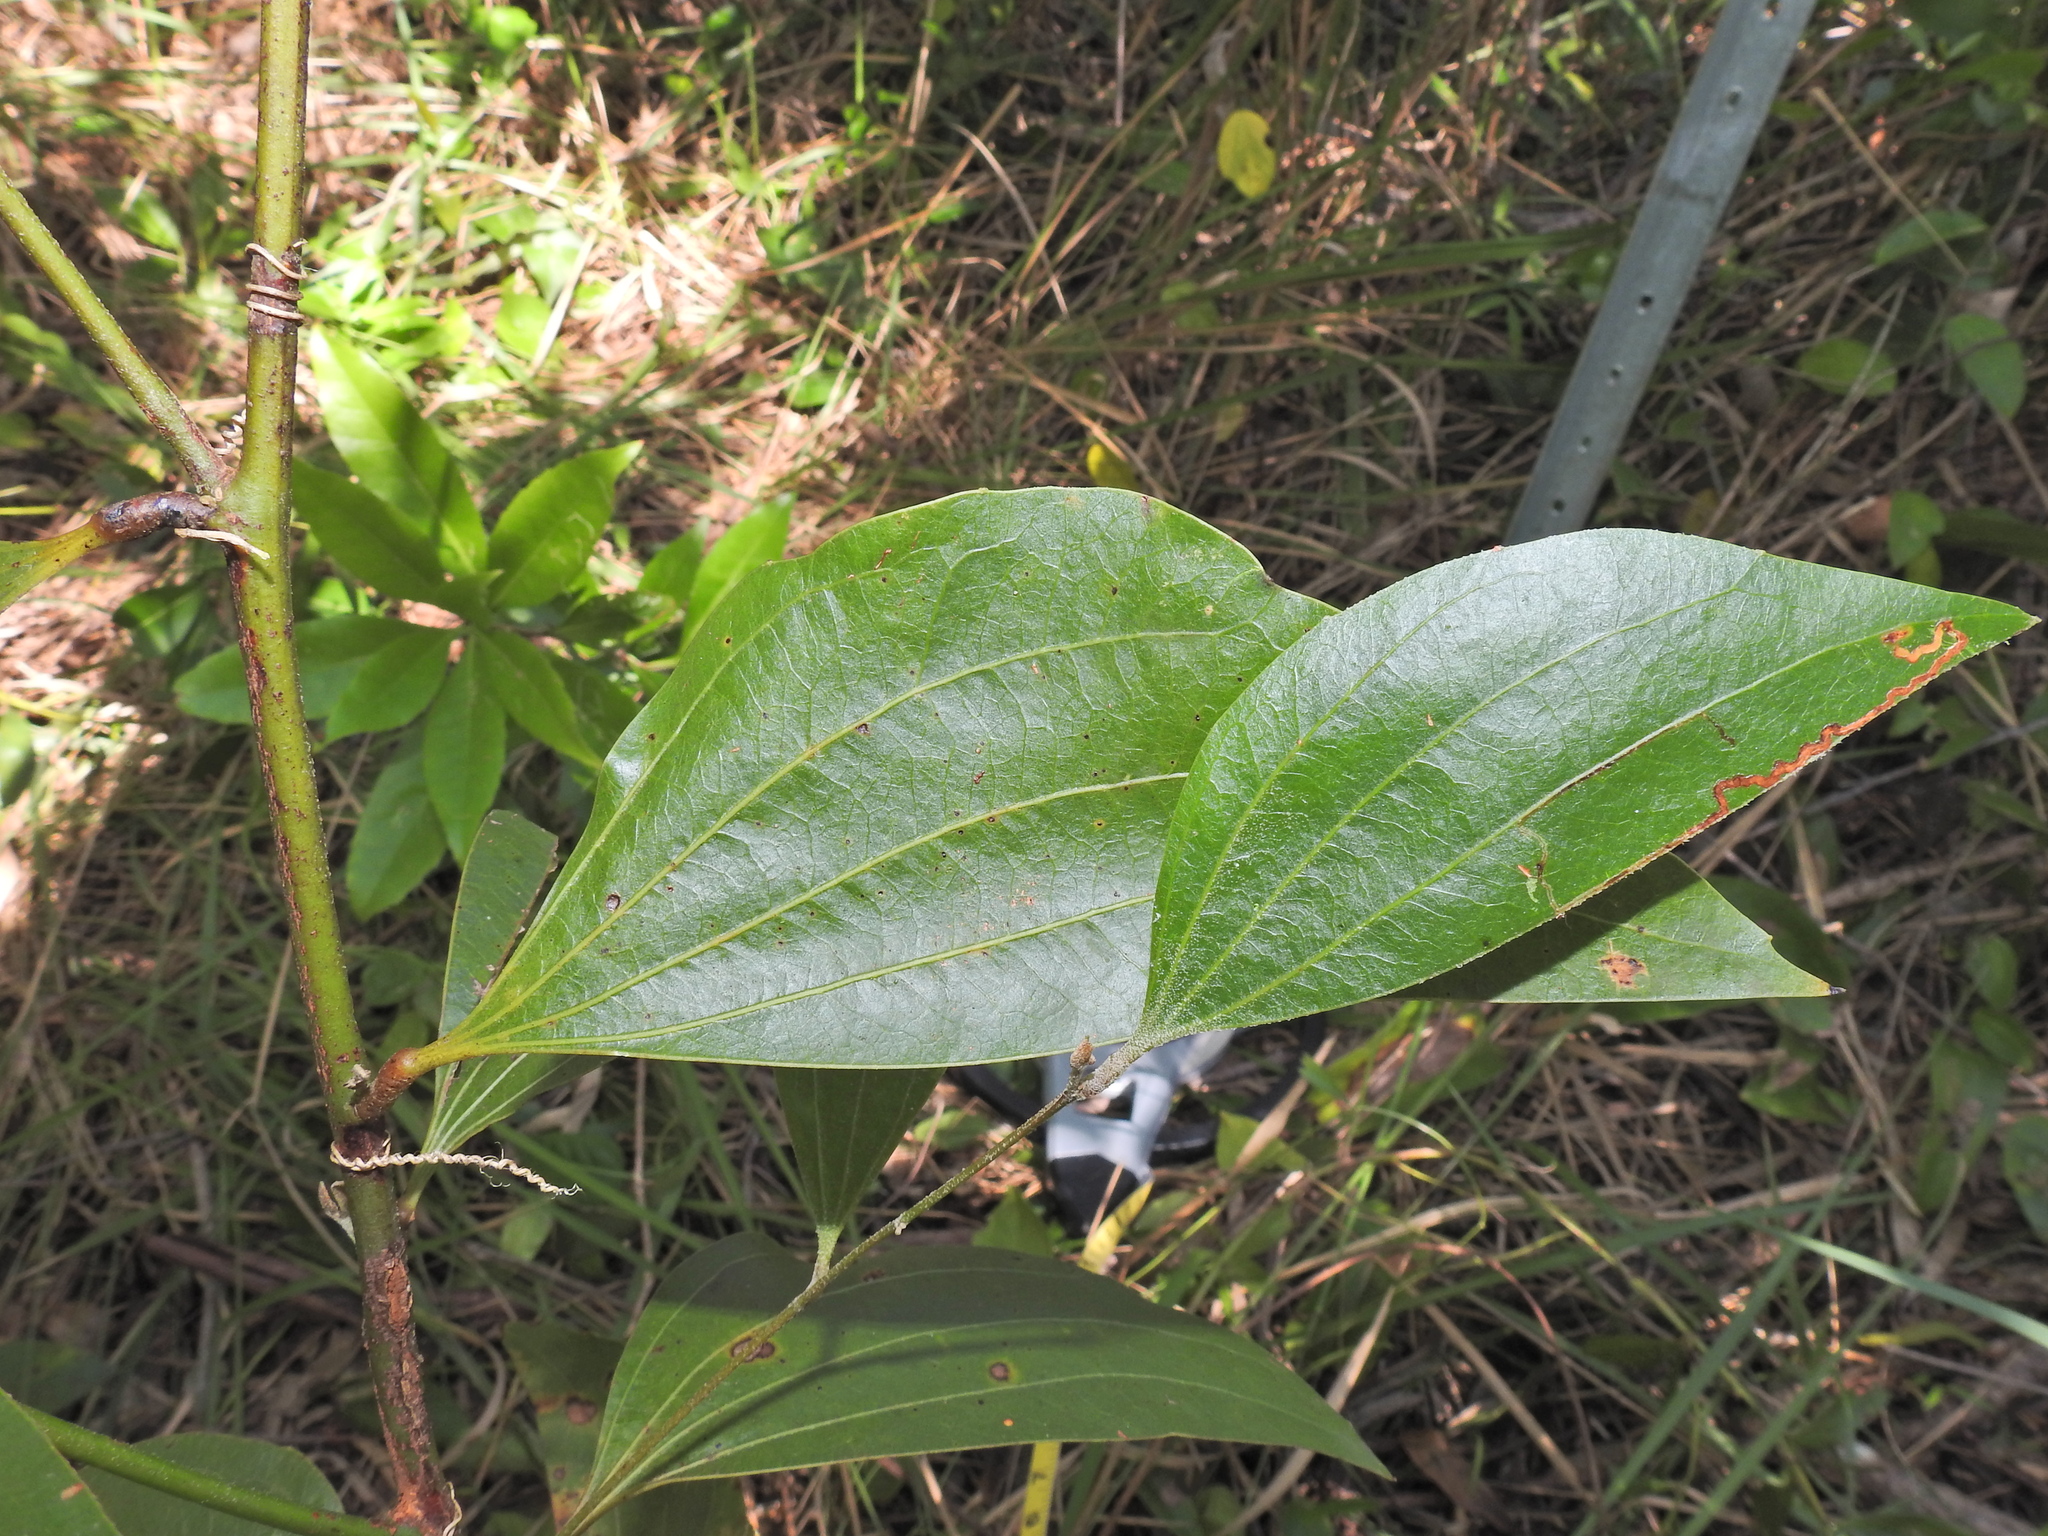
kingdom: Plantae
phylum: Tracheophyta
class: Magnoliopsida
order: Fabales
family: Fabaceae
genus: Acacia
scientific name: Acacia flavescens
